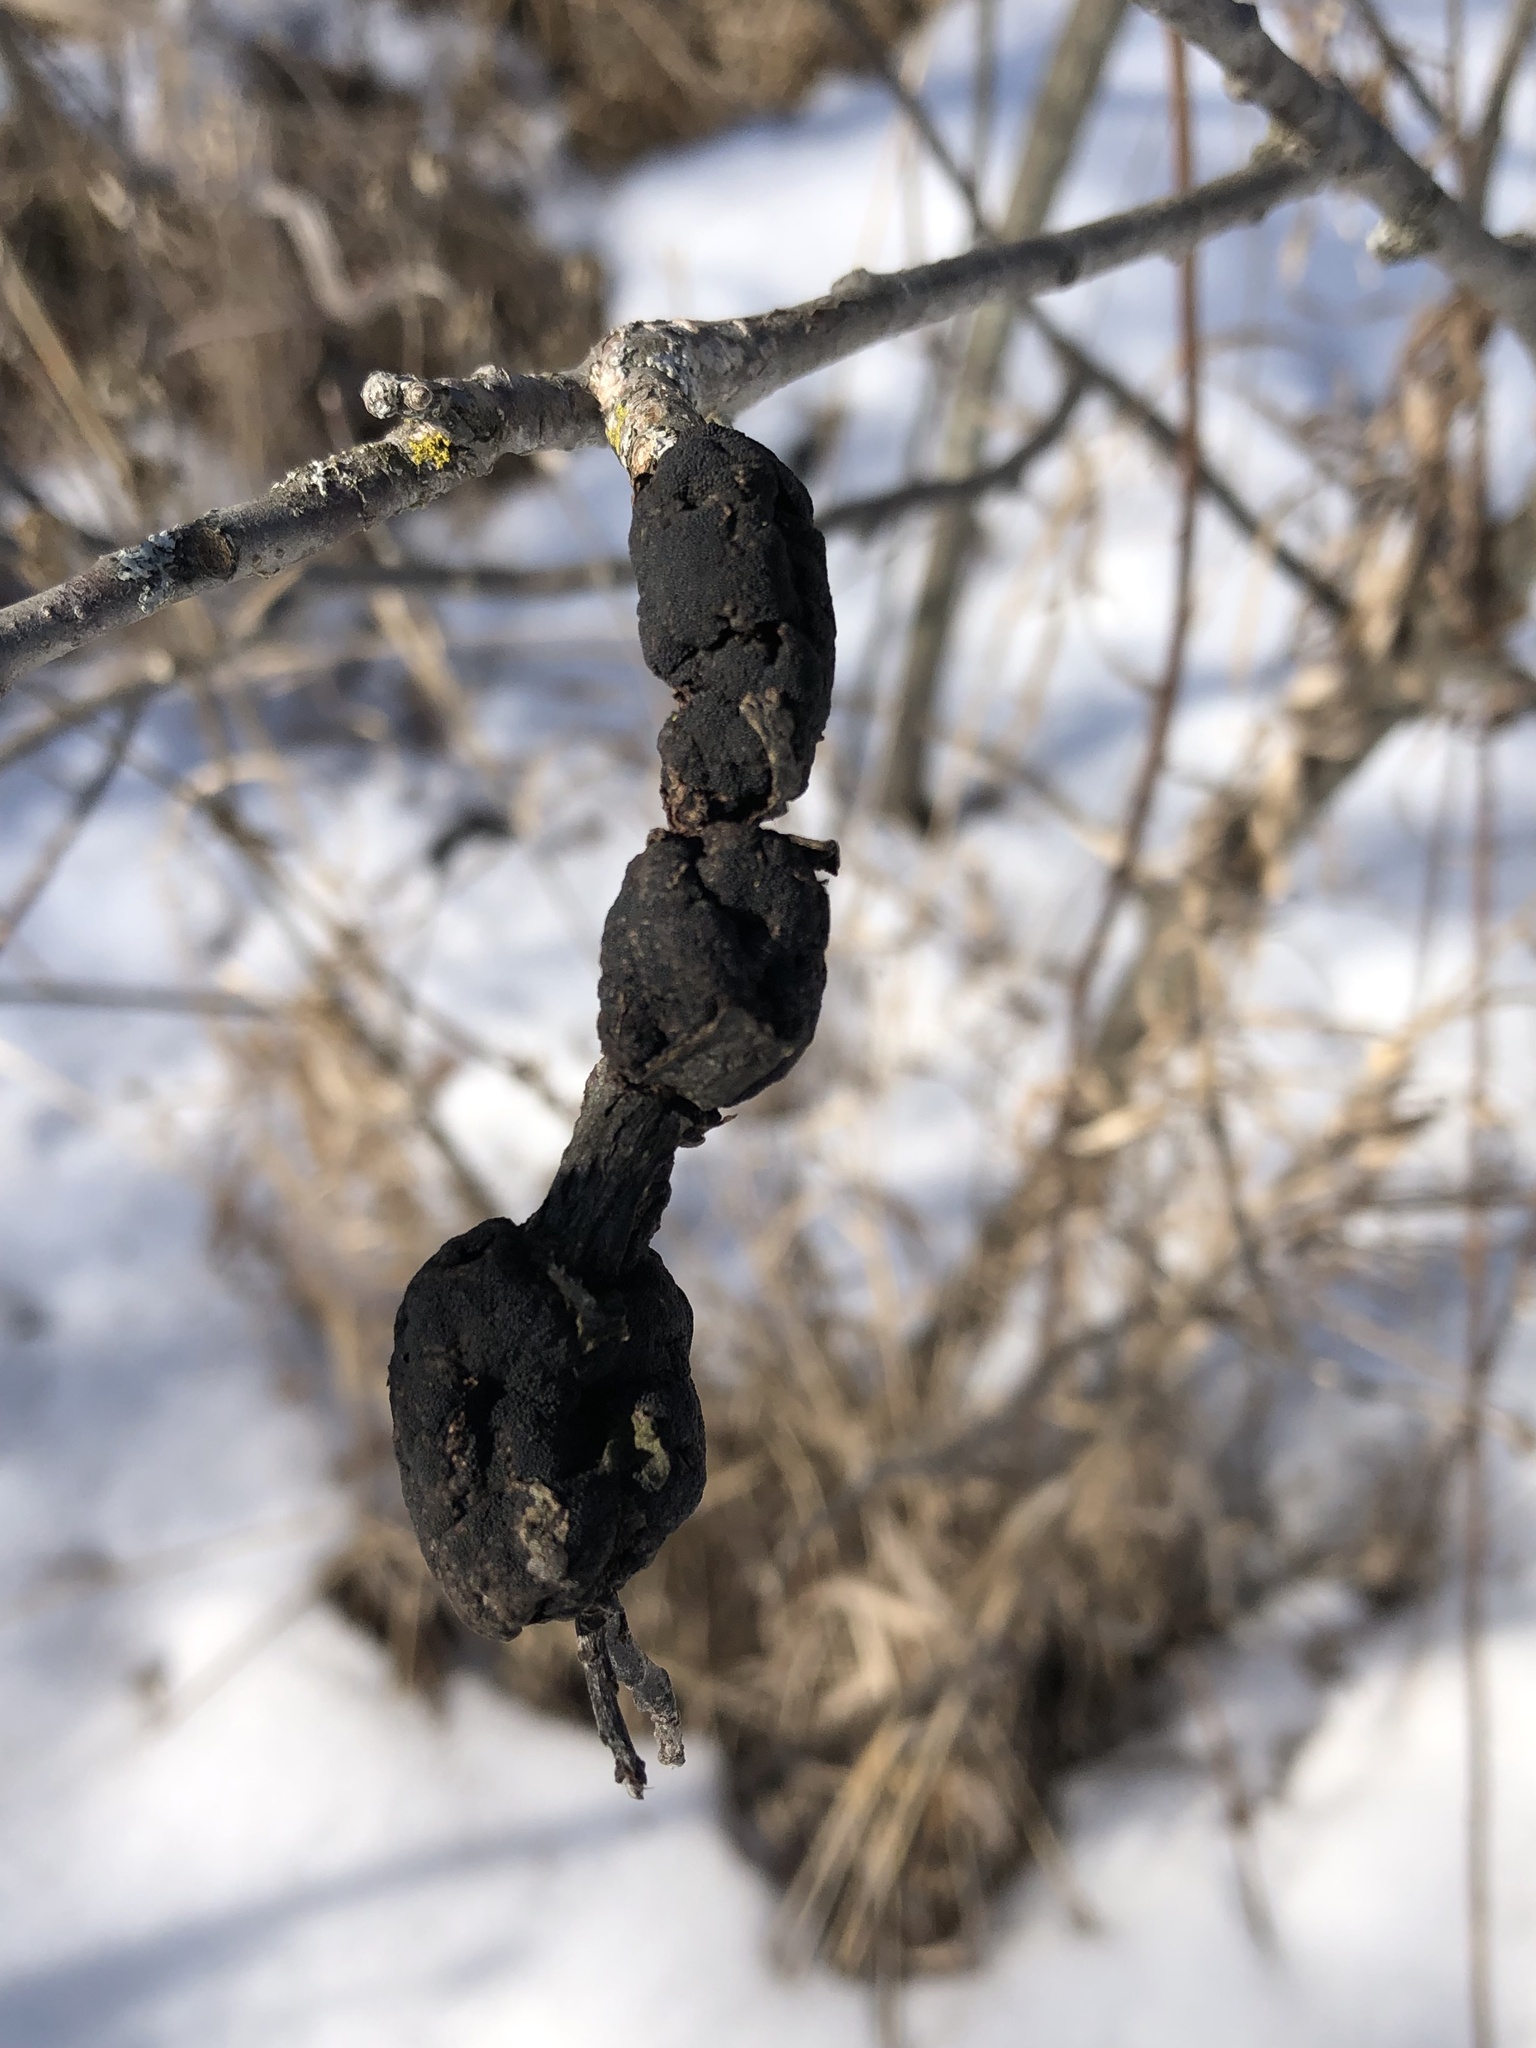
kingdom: Fungi
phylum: Ascomycota
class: Dothideomycetes
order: Venturiales
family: Venturiaceae
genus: Apiosporina
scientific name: Apiosporina morbosa
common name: Black knot
